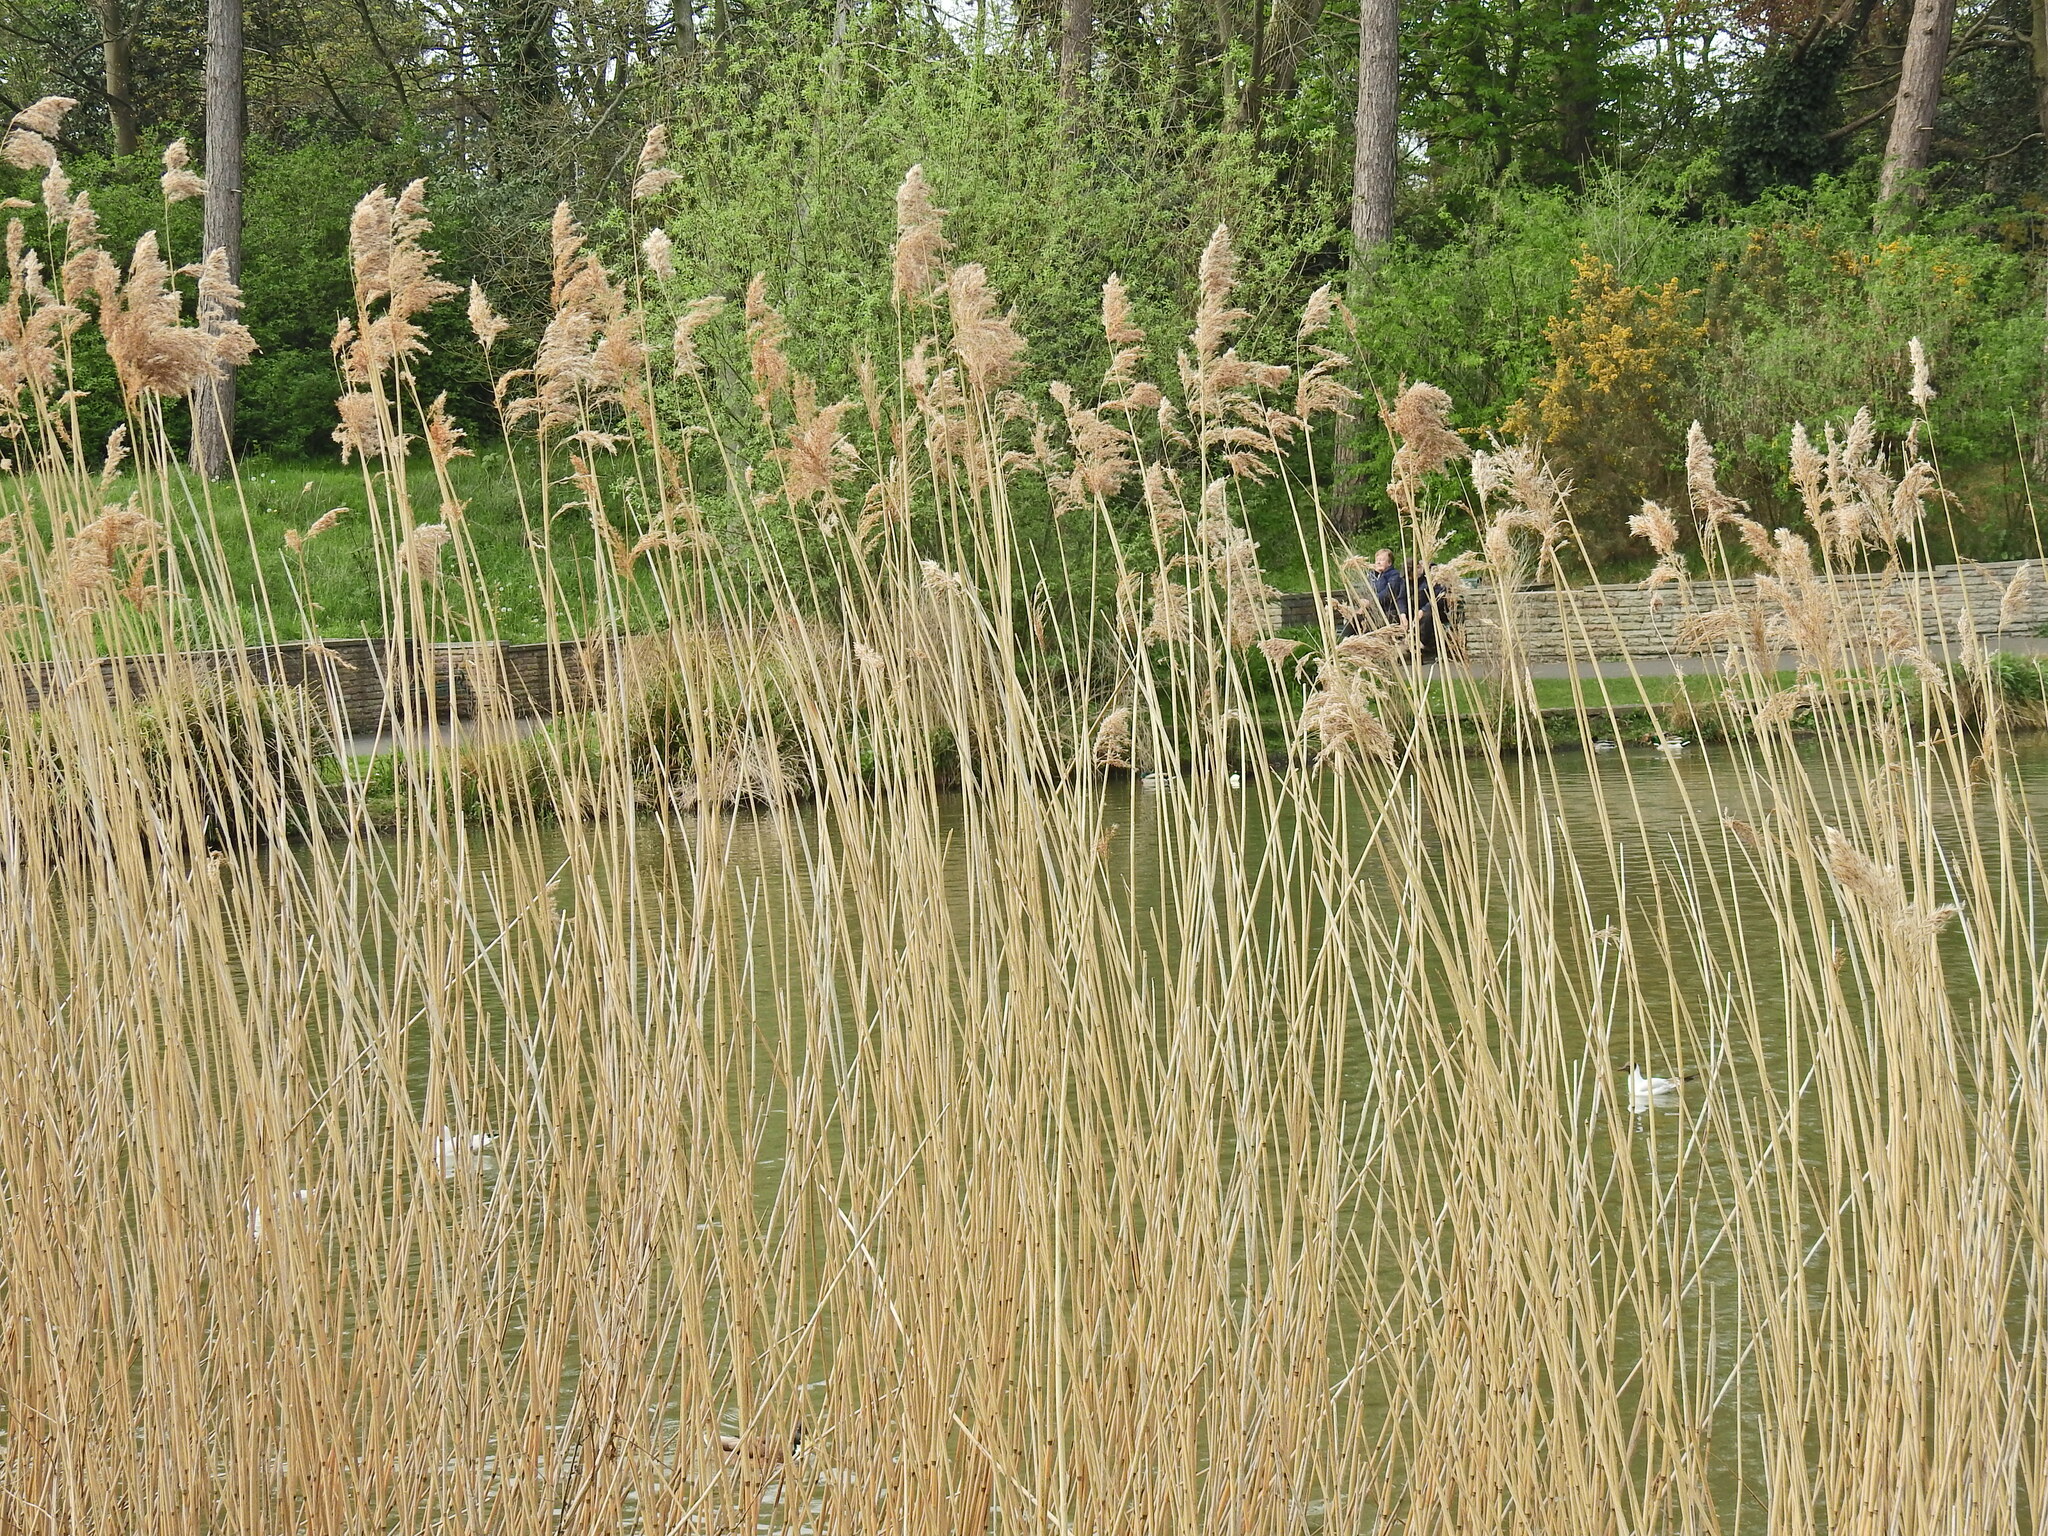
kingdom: Plantae
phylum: Tracheophyta
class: Liliopsida
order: Poales
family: Poaceae
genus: Phragmites
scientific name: Phragmites australis
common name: Common reed
